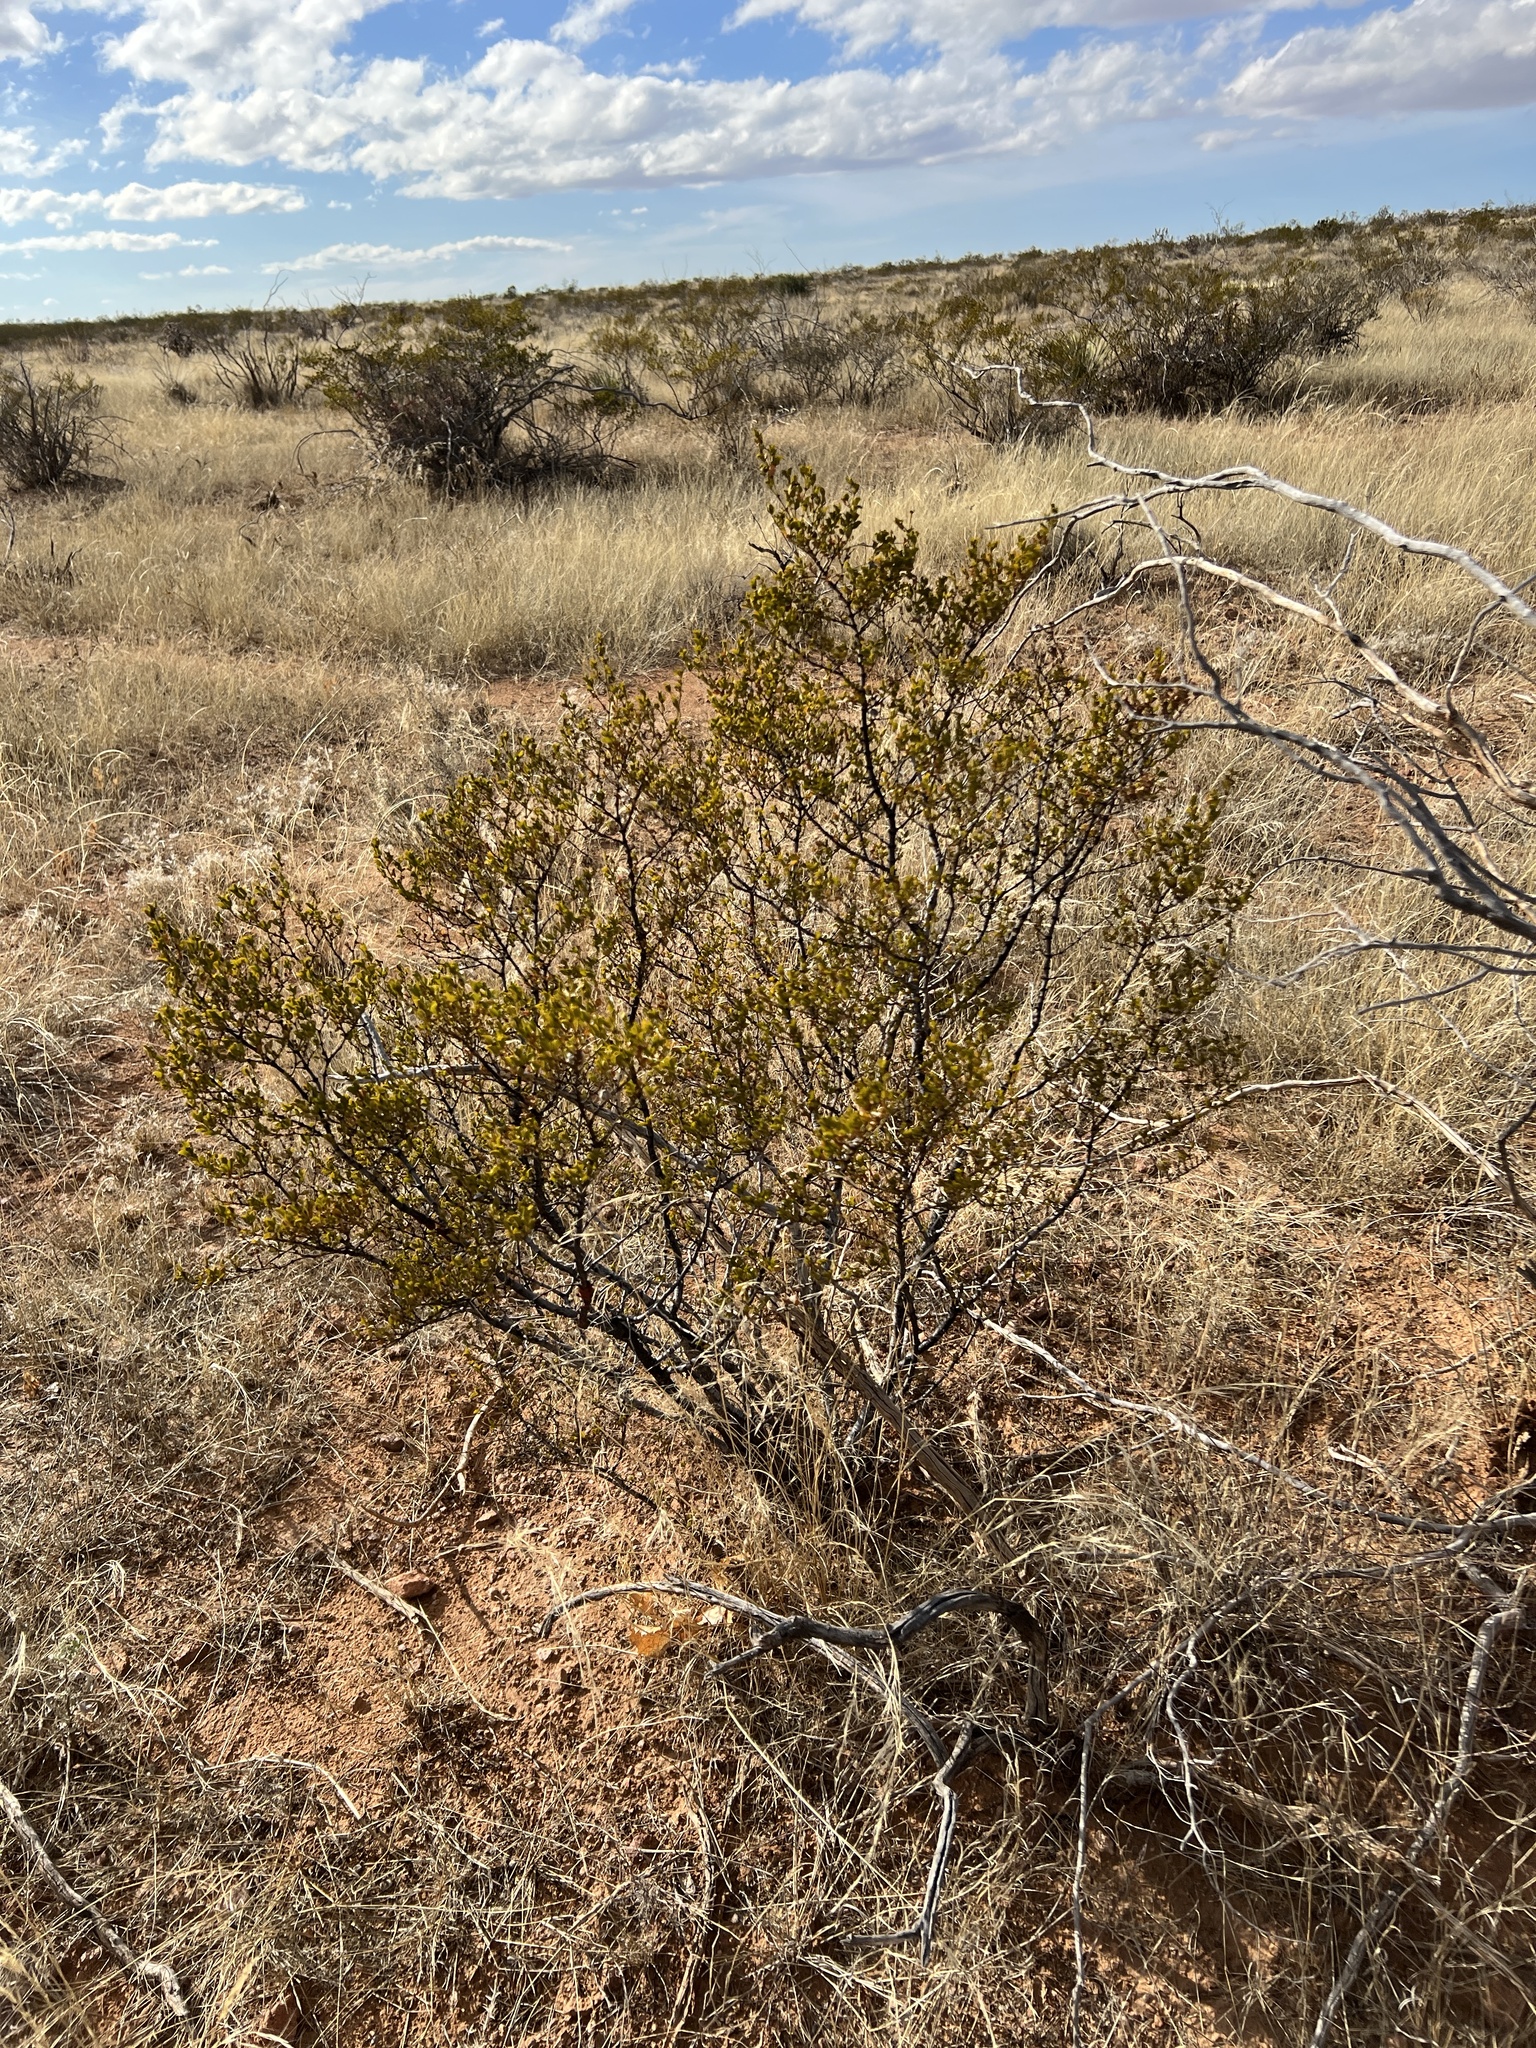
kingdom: Plantae
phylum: Tracheophyta
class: Magnoliopsida
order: Zygophyllales
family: Zygophyllaceae
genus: Larrea
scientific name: Larrea tridentata
